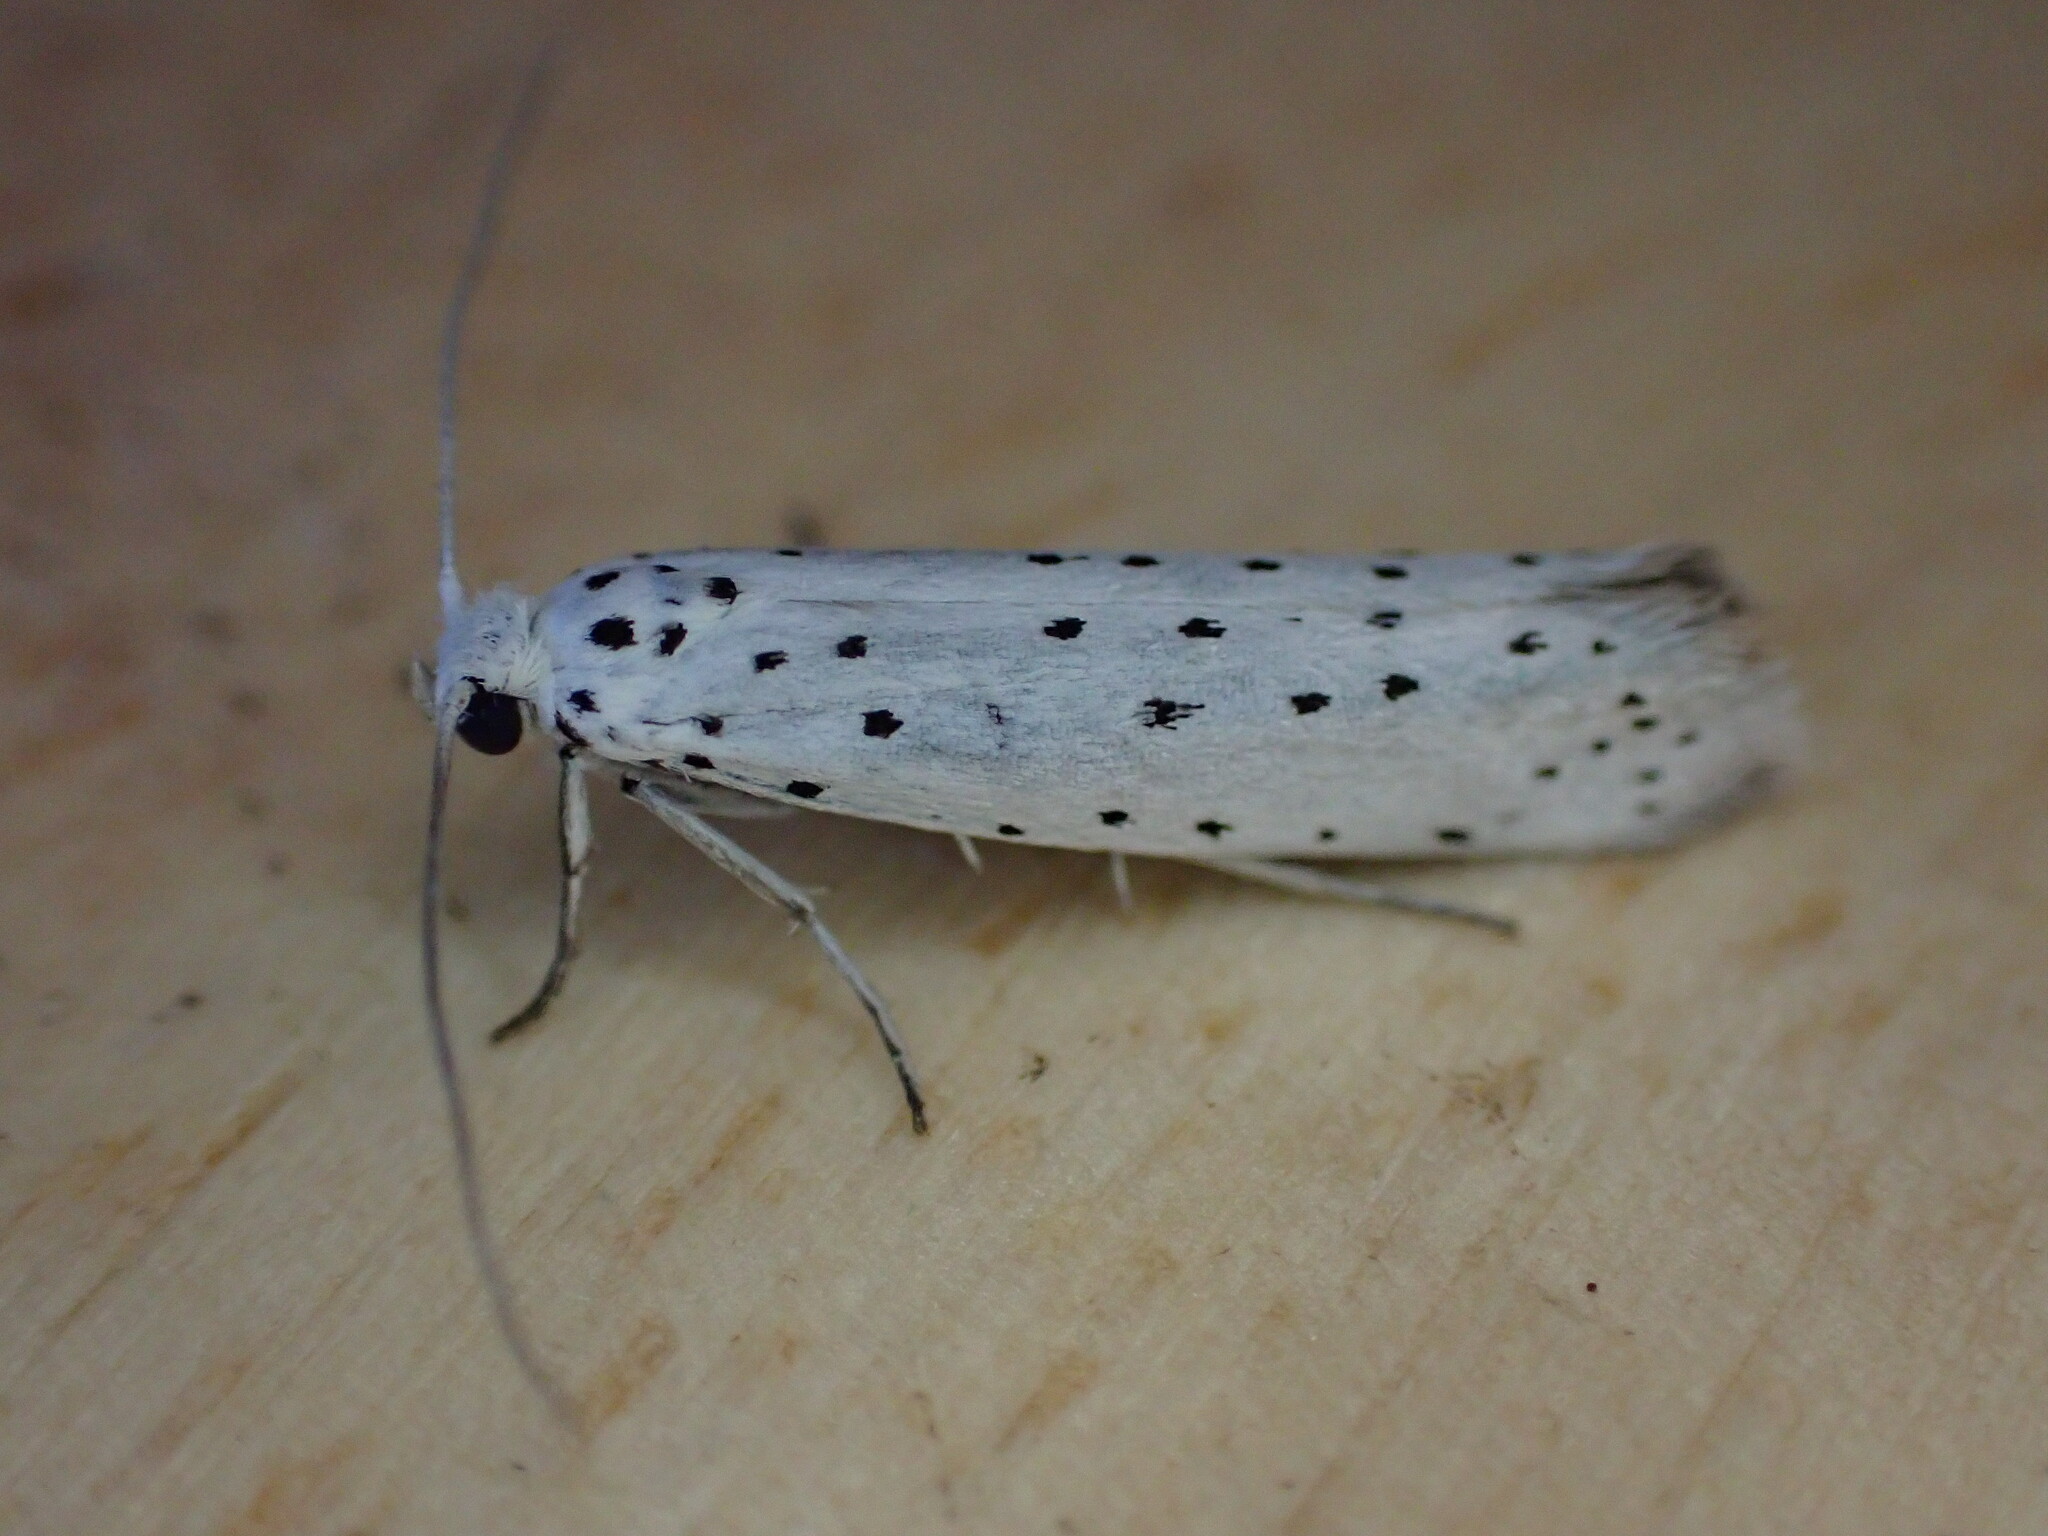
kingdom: Animalia
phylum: Arthropoda
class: Insecta
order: Lepidoptera
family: Yponomeutidae
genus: Yponomeuta
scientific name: Yponomeuta
